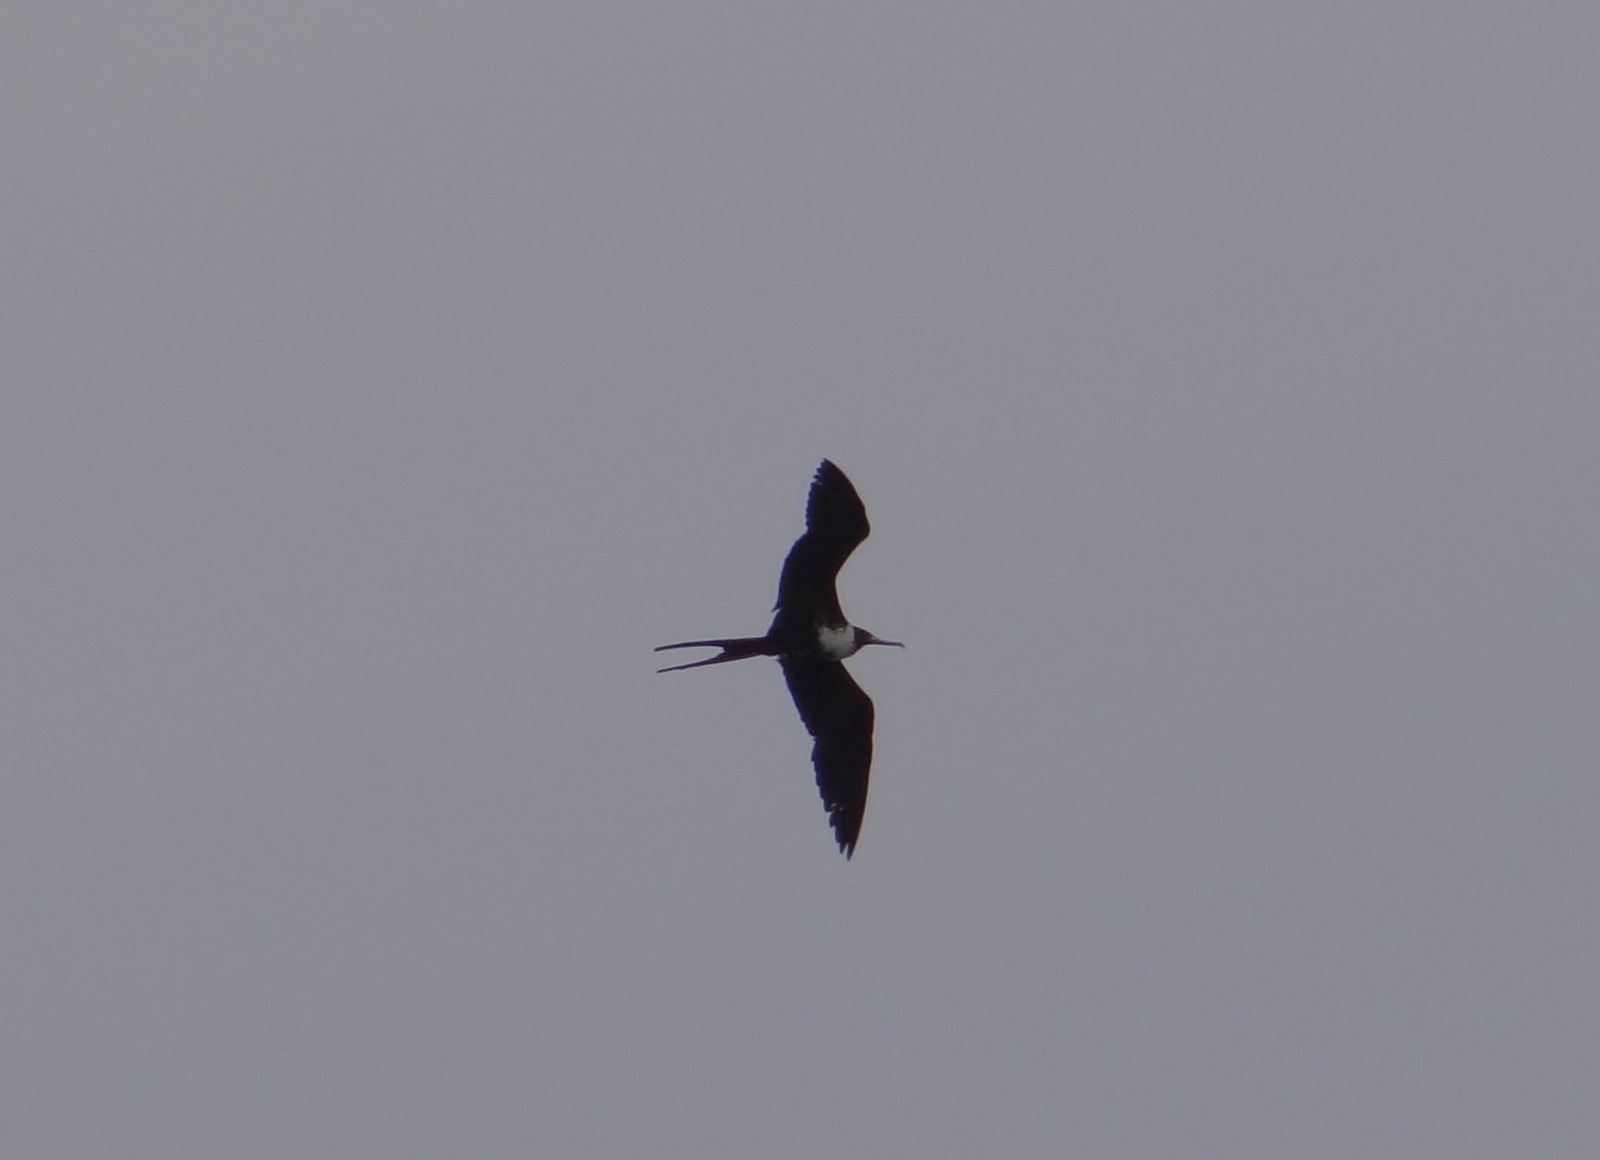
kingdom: Animalia
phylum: Chordata
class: Aves
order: Suliformes
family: Fregatidae
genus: Fregata
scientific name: Fregata magnificens
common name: Magnificent frigatebird
